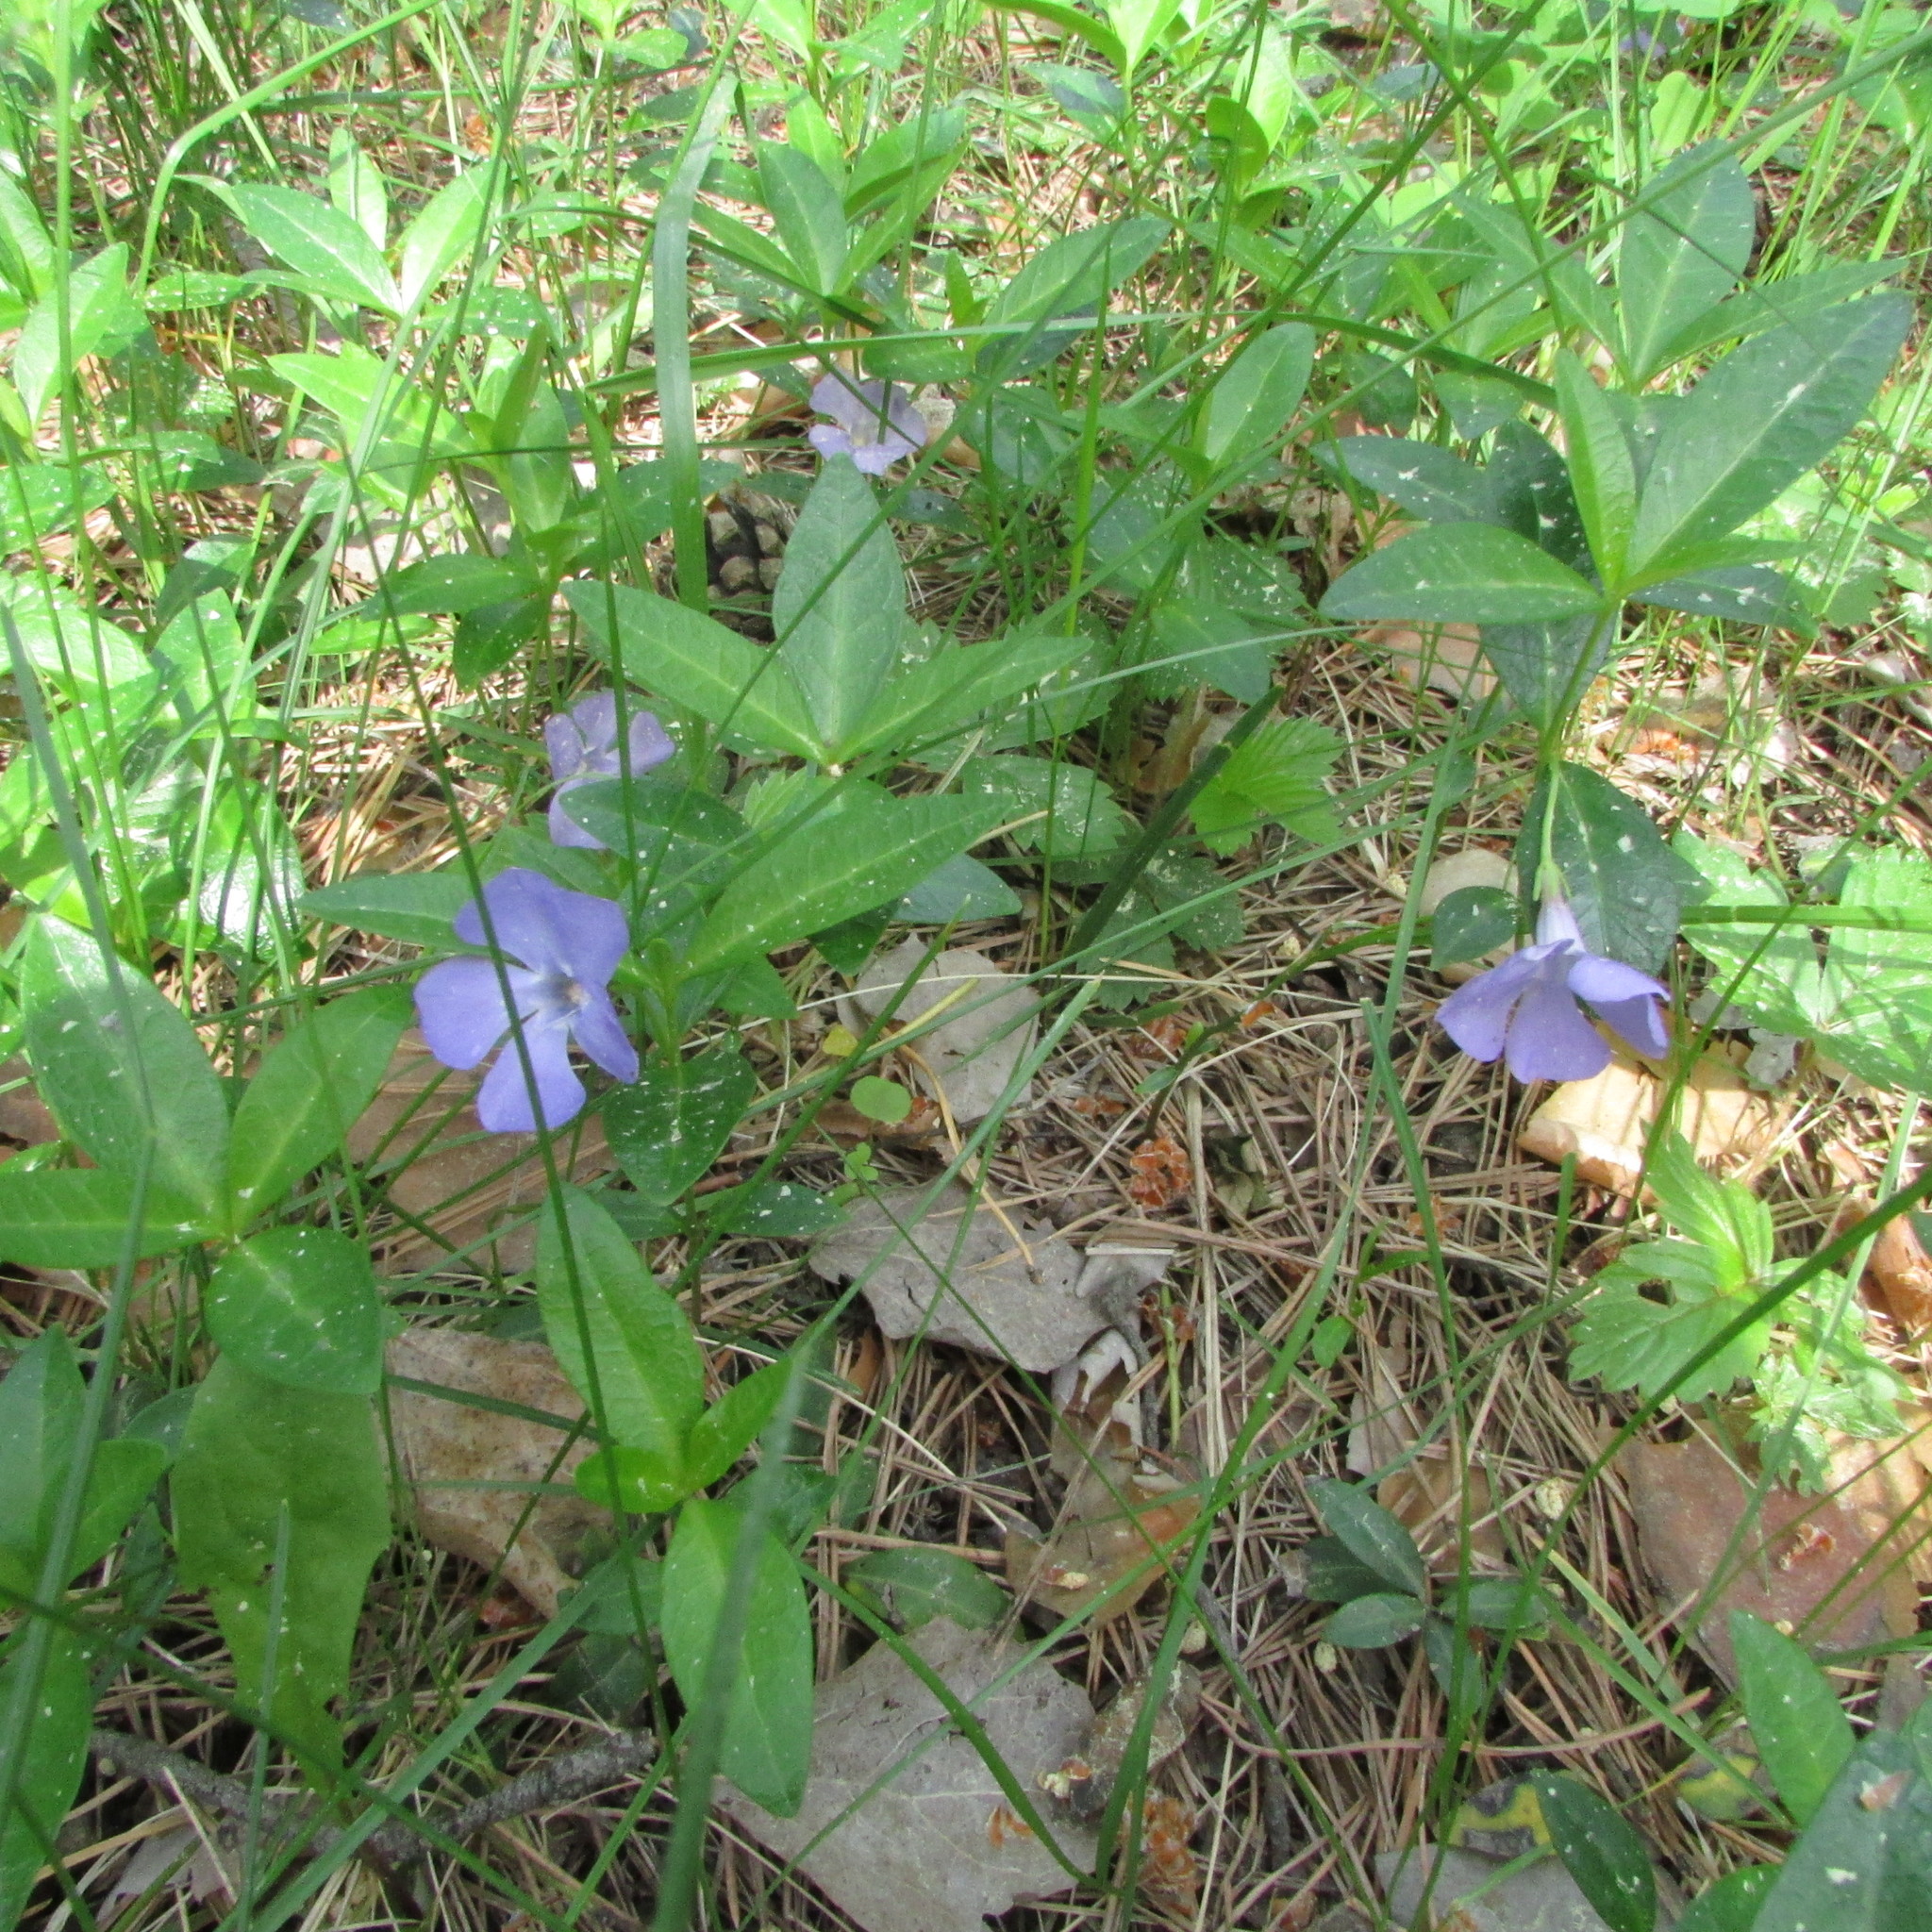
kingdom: Plantae
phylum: Tracheophyta
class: Magnoliopsida
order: Gentianales
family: Apocynaceae
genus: Vinca
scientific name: Vinca minor
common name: Lesser periwinkle
